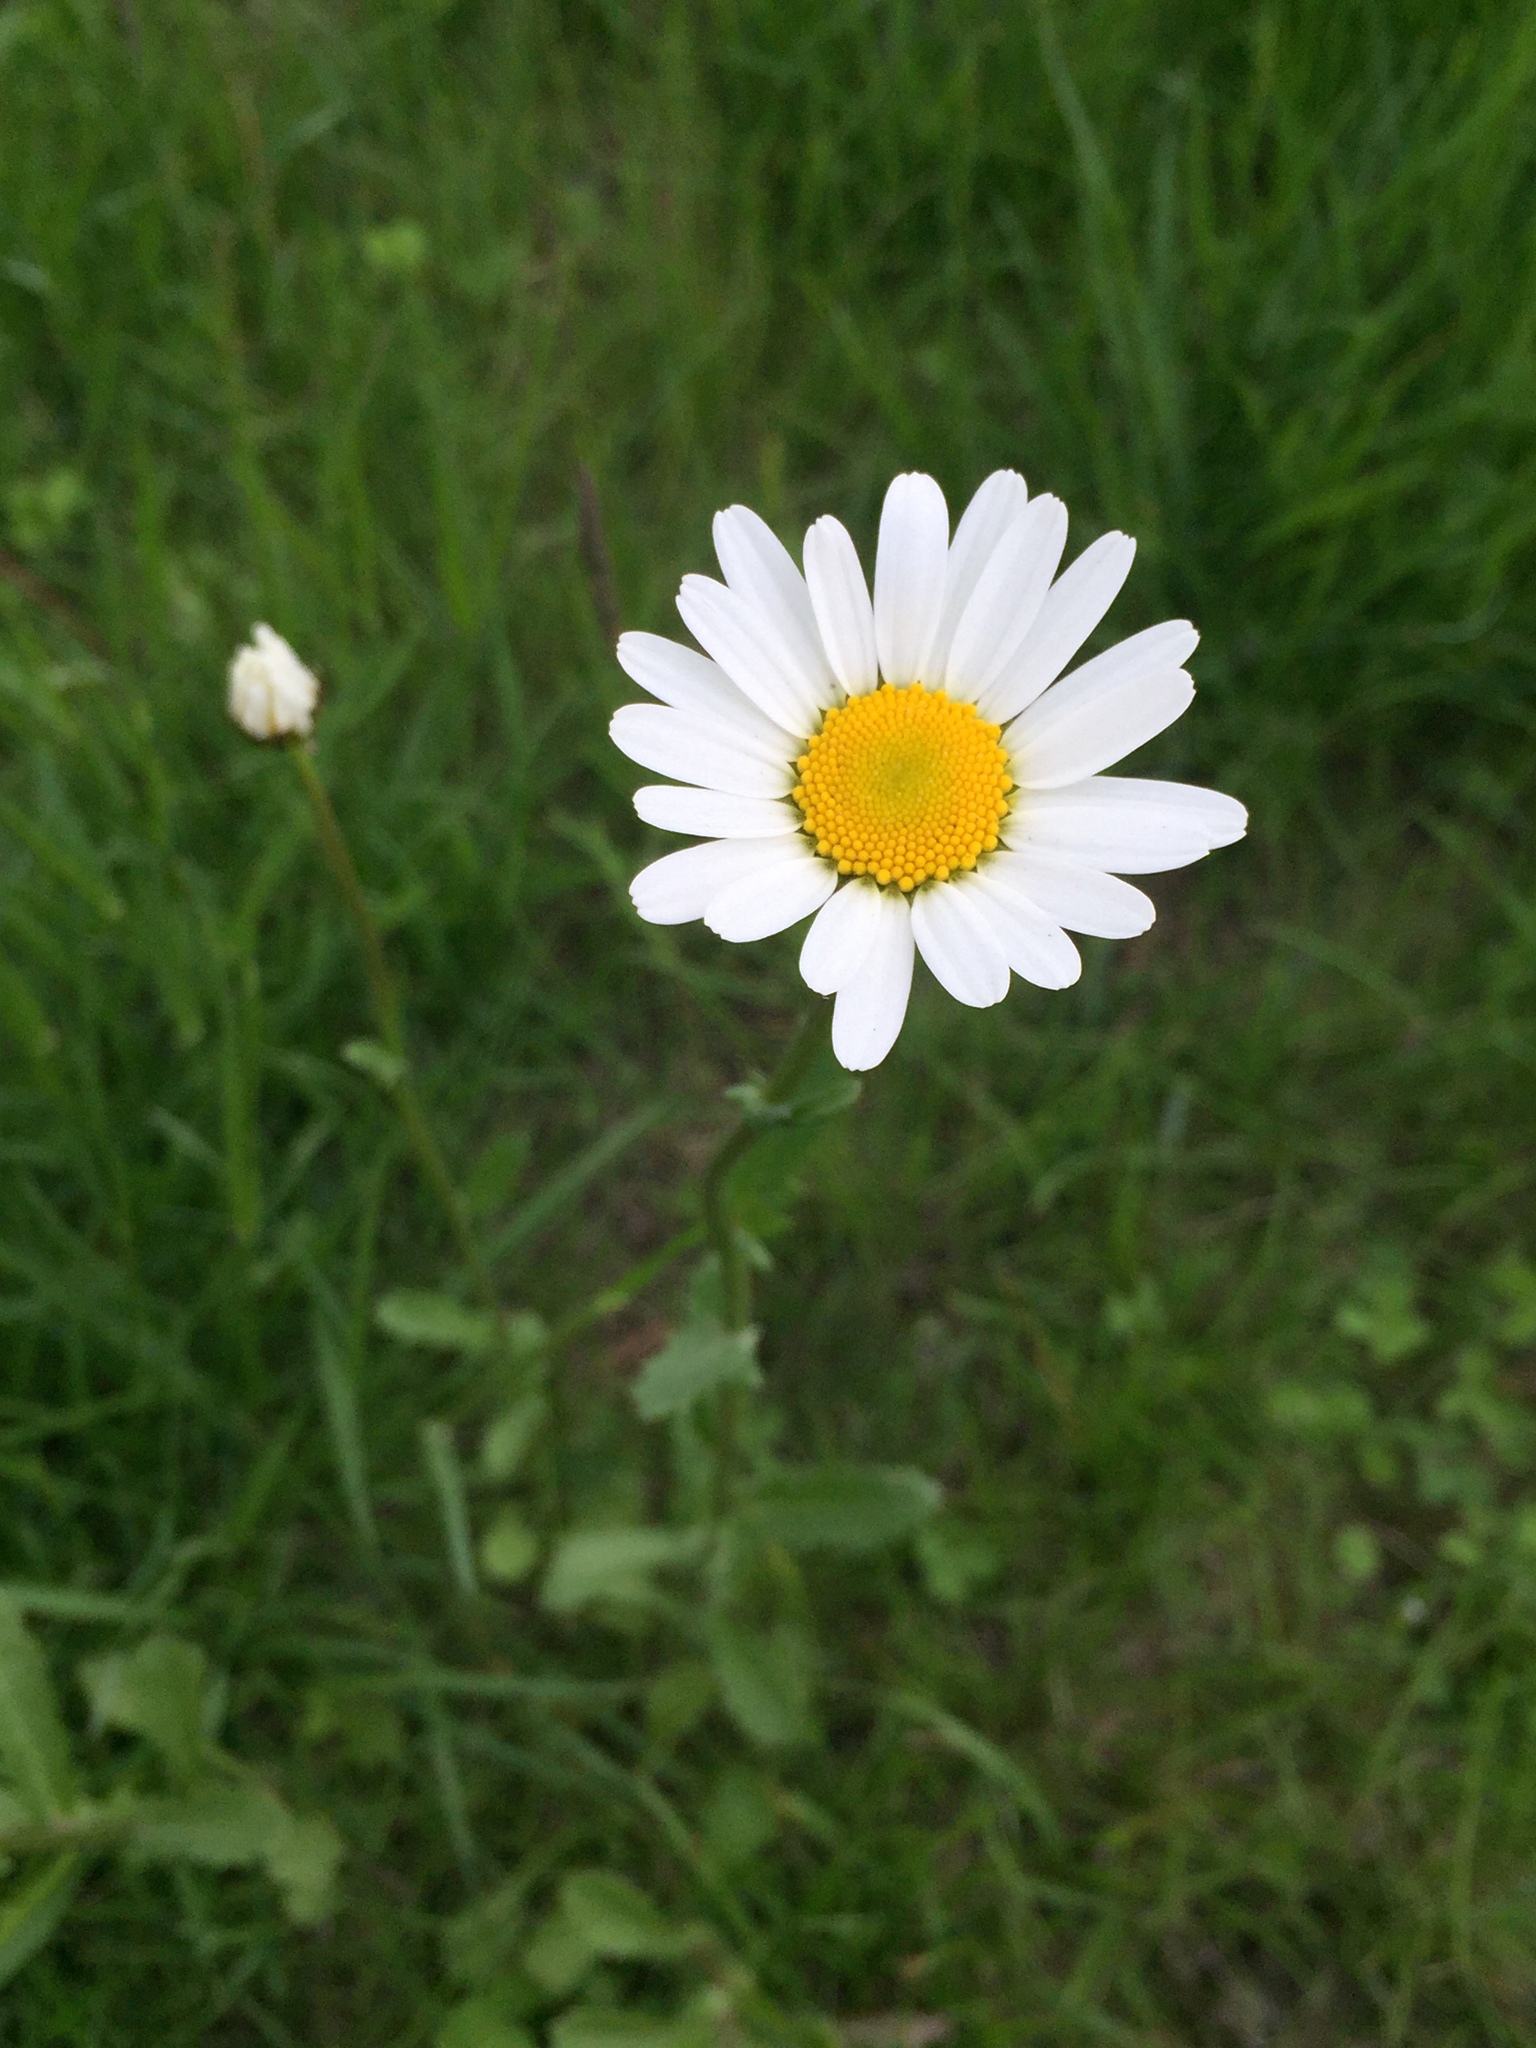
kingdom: Plantae
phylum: Tracheophyta
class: Magnoliopsida
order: Asterales
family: Asteraceae
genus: Leucanthemum
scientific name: Leucanthemum vulgare
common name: Oxeye daisy
